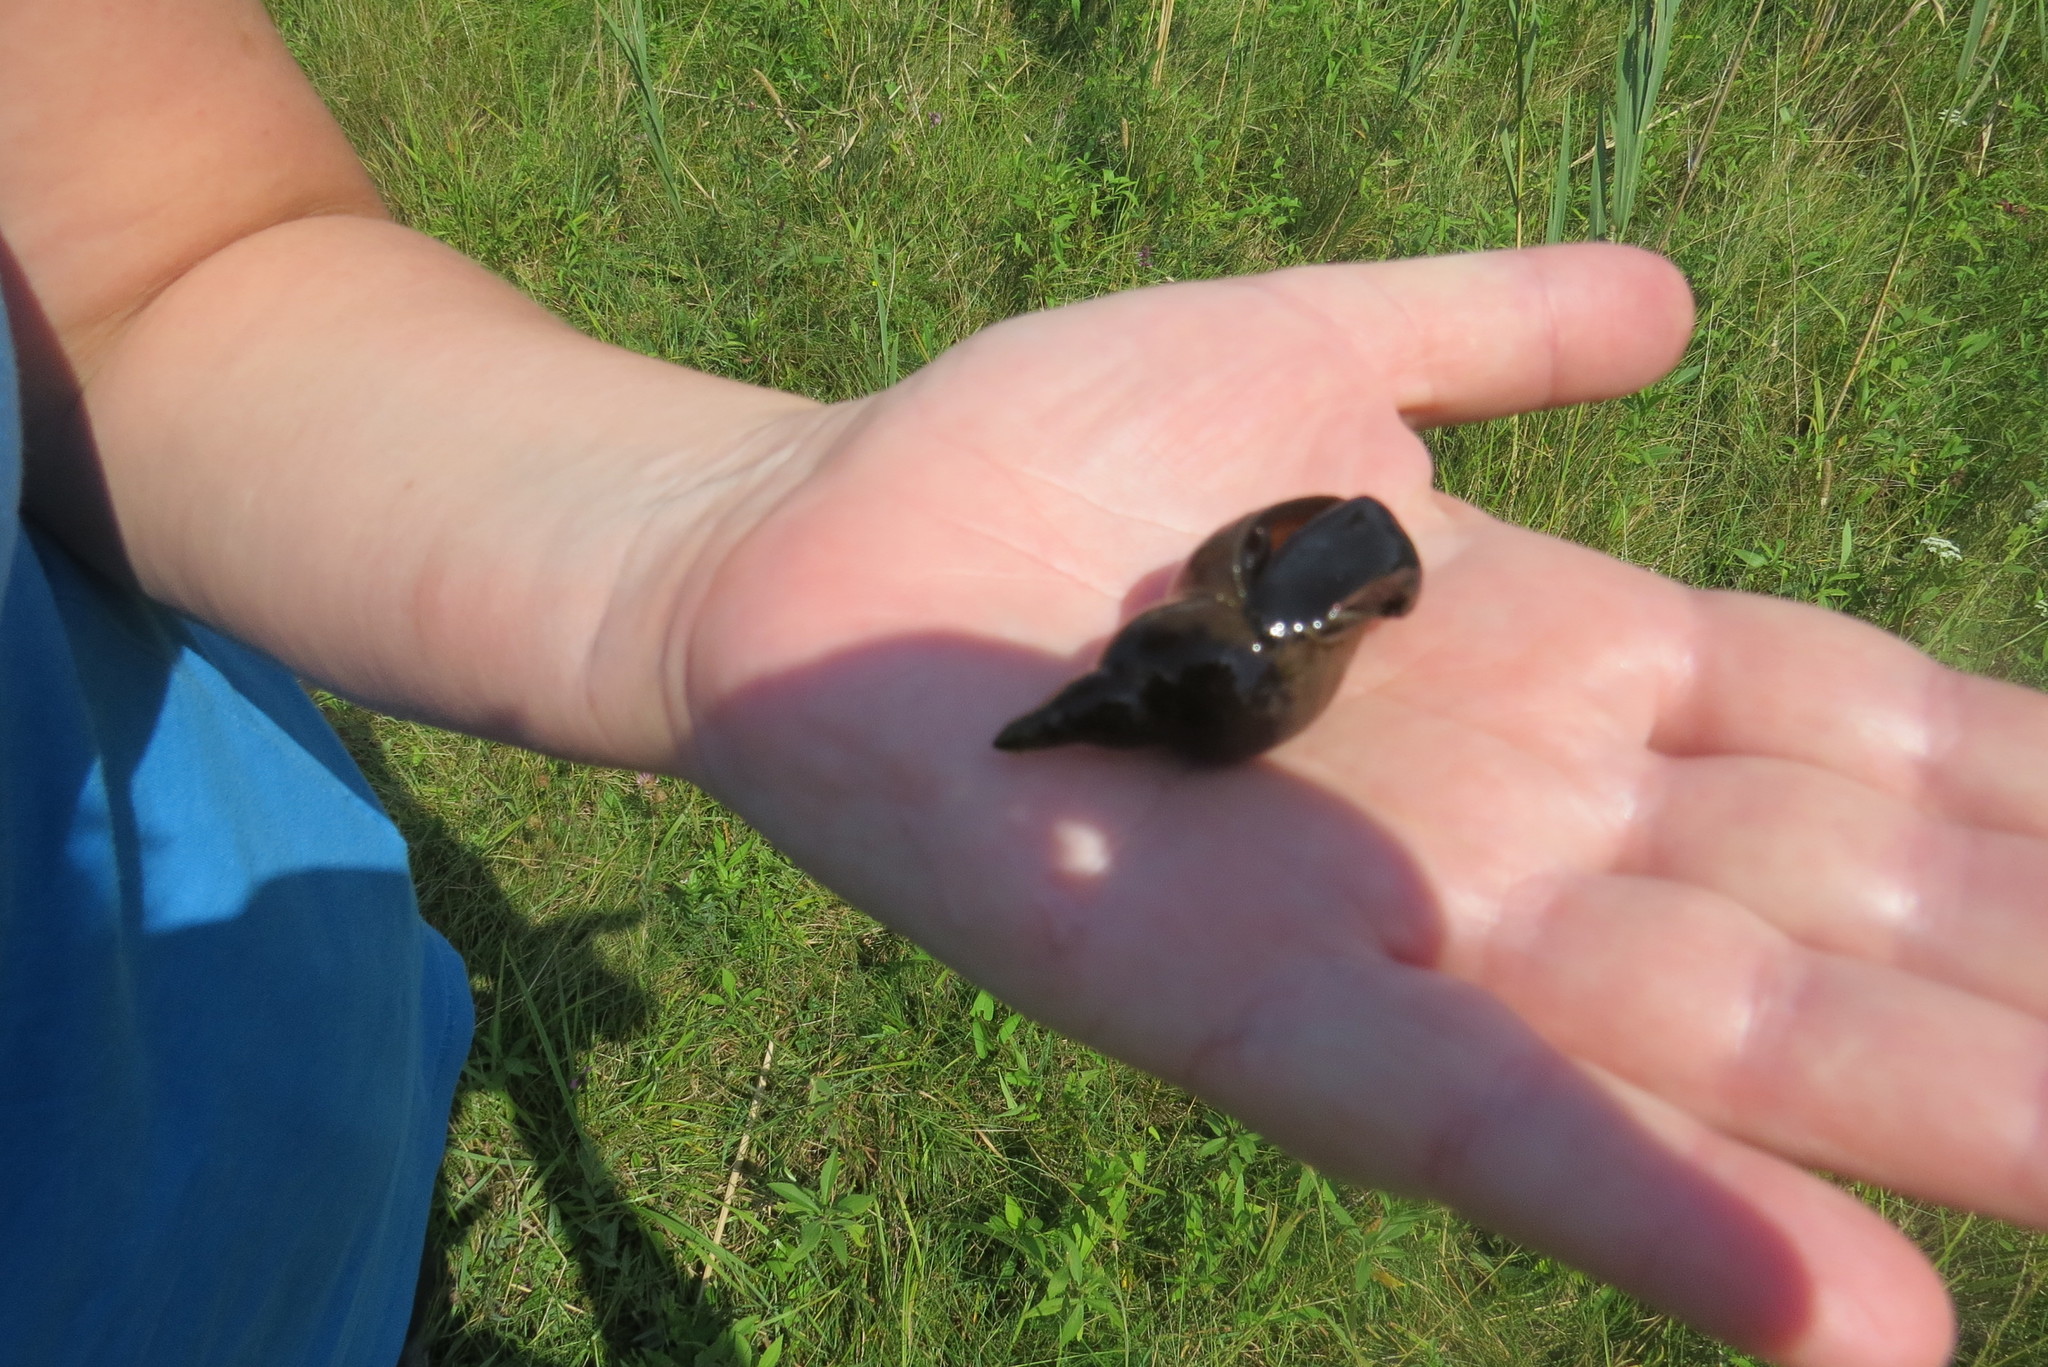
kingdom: Animalia
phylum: Mollusca
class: Gastropoda
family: Lymnaeidae
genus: Lymnaea
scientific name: Lymnaea stagnalis
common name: Great pond snail
